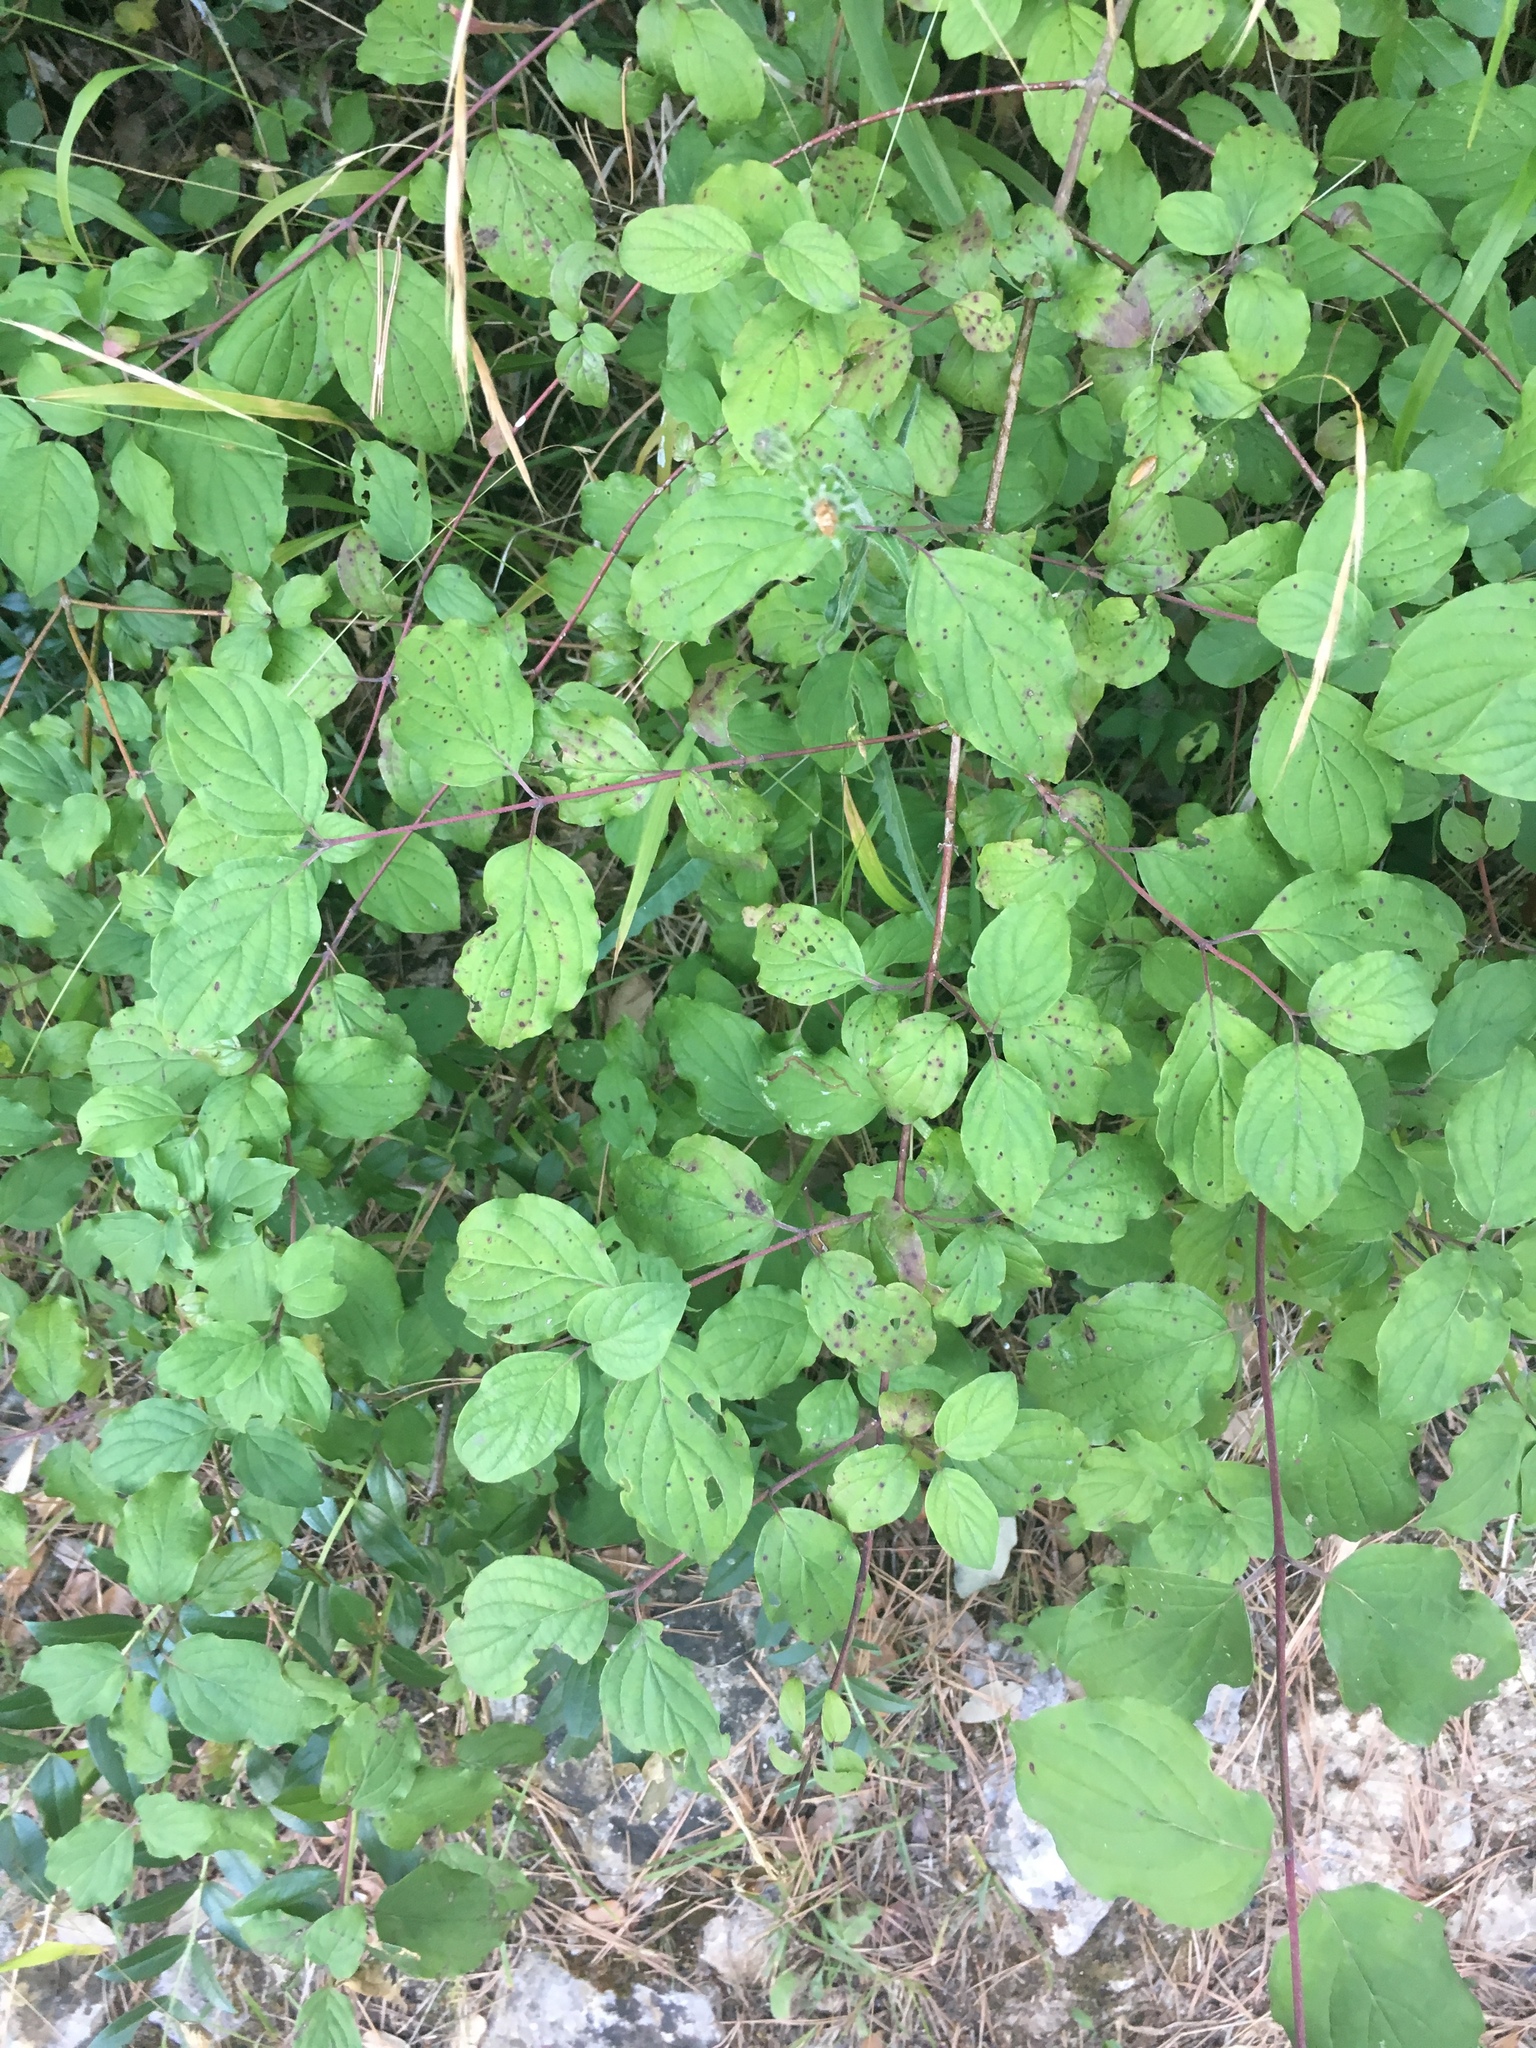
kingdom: Plantae
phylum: Tracheophyta
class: Magnoliopsida
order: Cornales
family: Cornaceae
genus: Cornus
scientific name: Cornus sanguinea
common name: Dogwood
